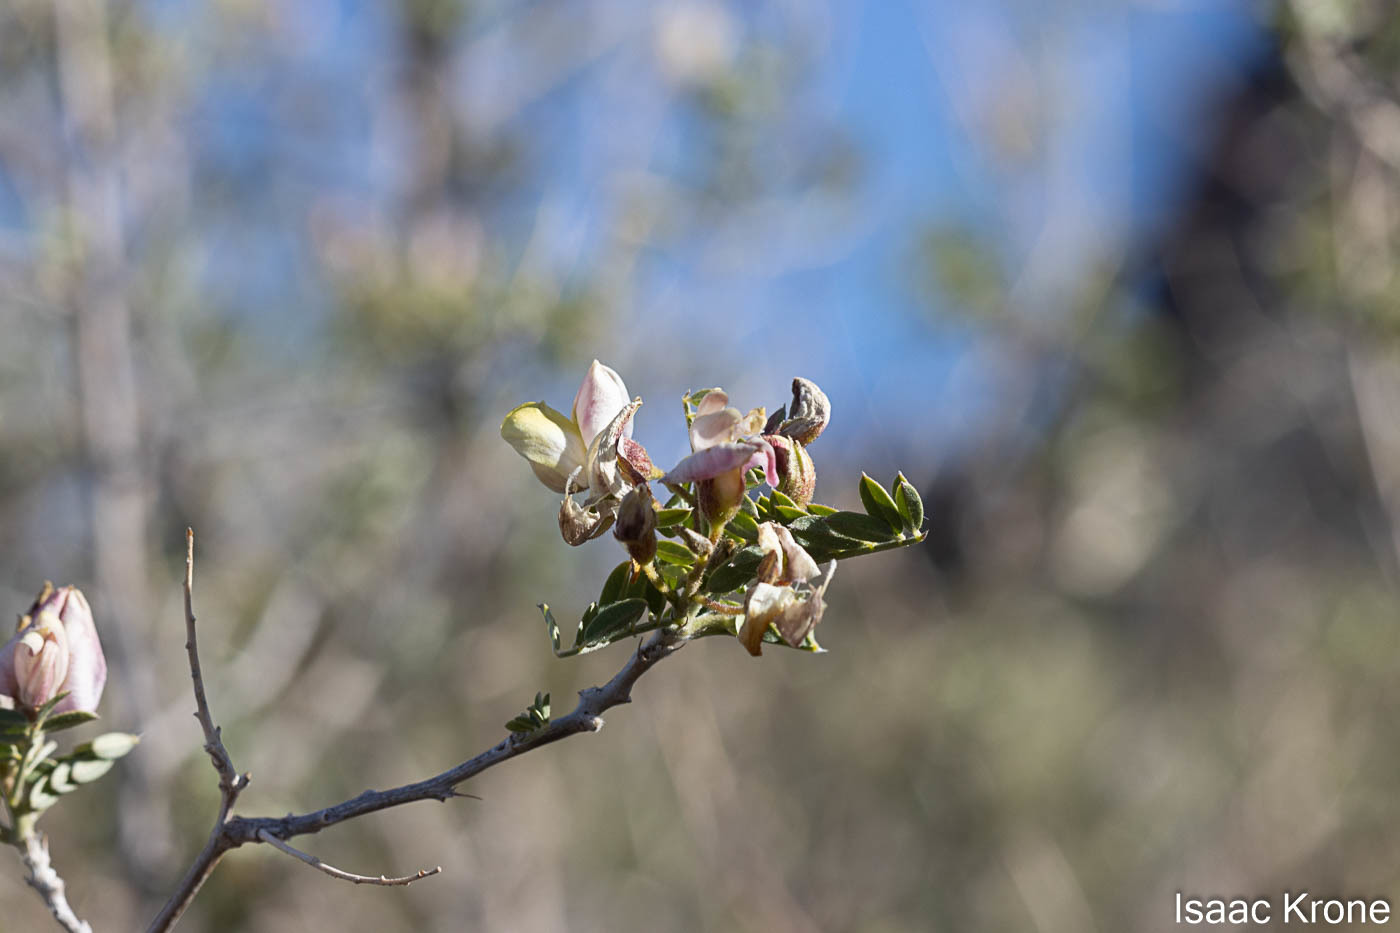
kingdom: Plantae
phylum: Tracheophyta
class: Magnoliopsida
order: Fabales
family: Fabaceae
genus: Coursetia
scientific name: Coursetia glandulosa
